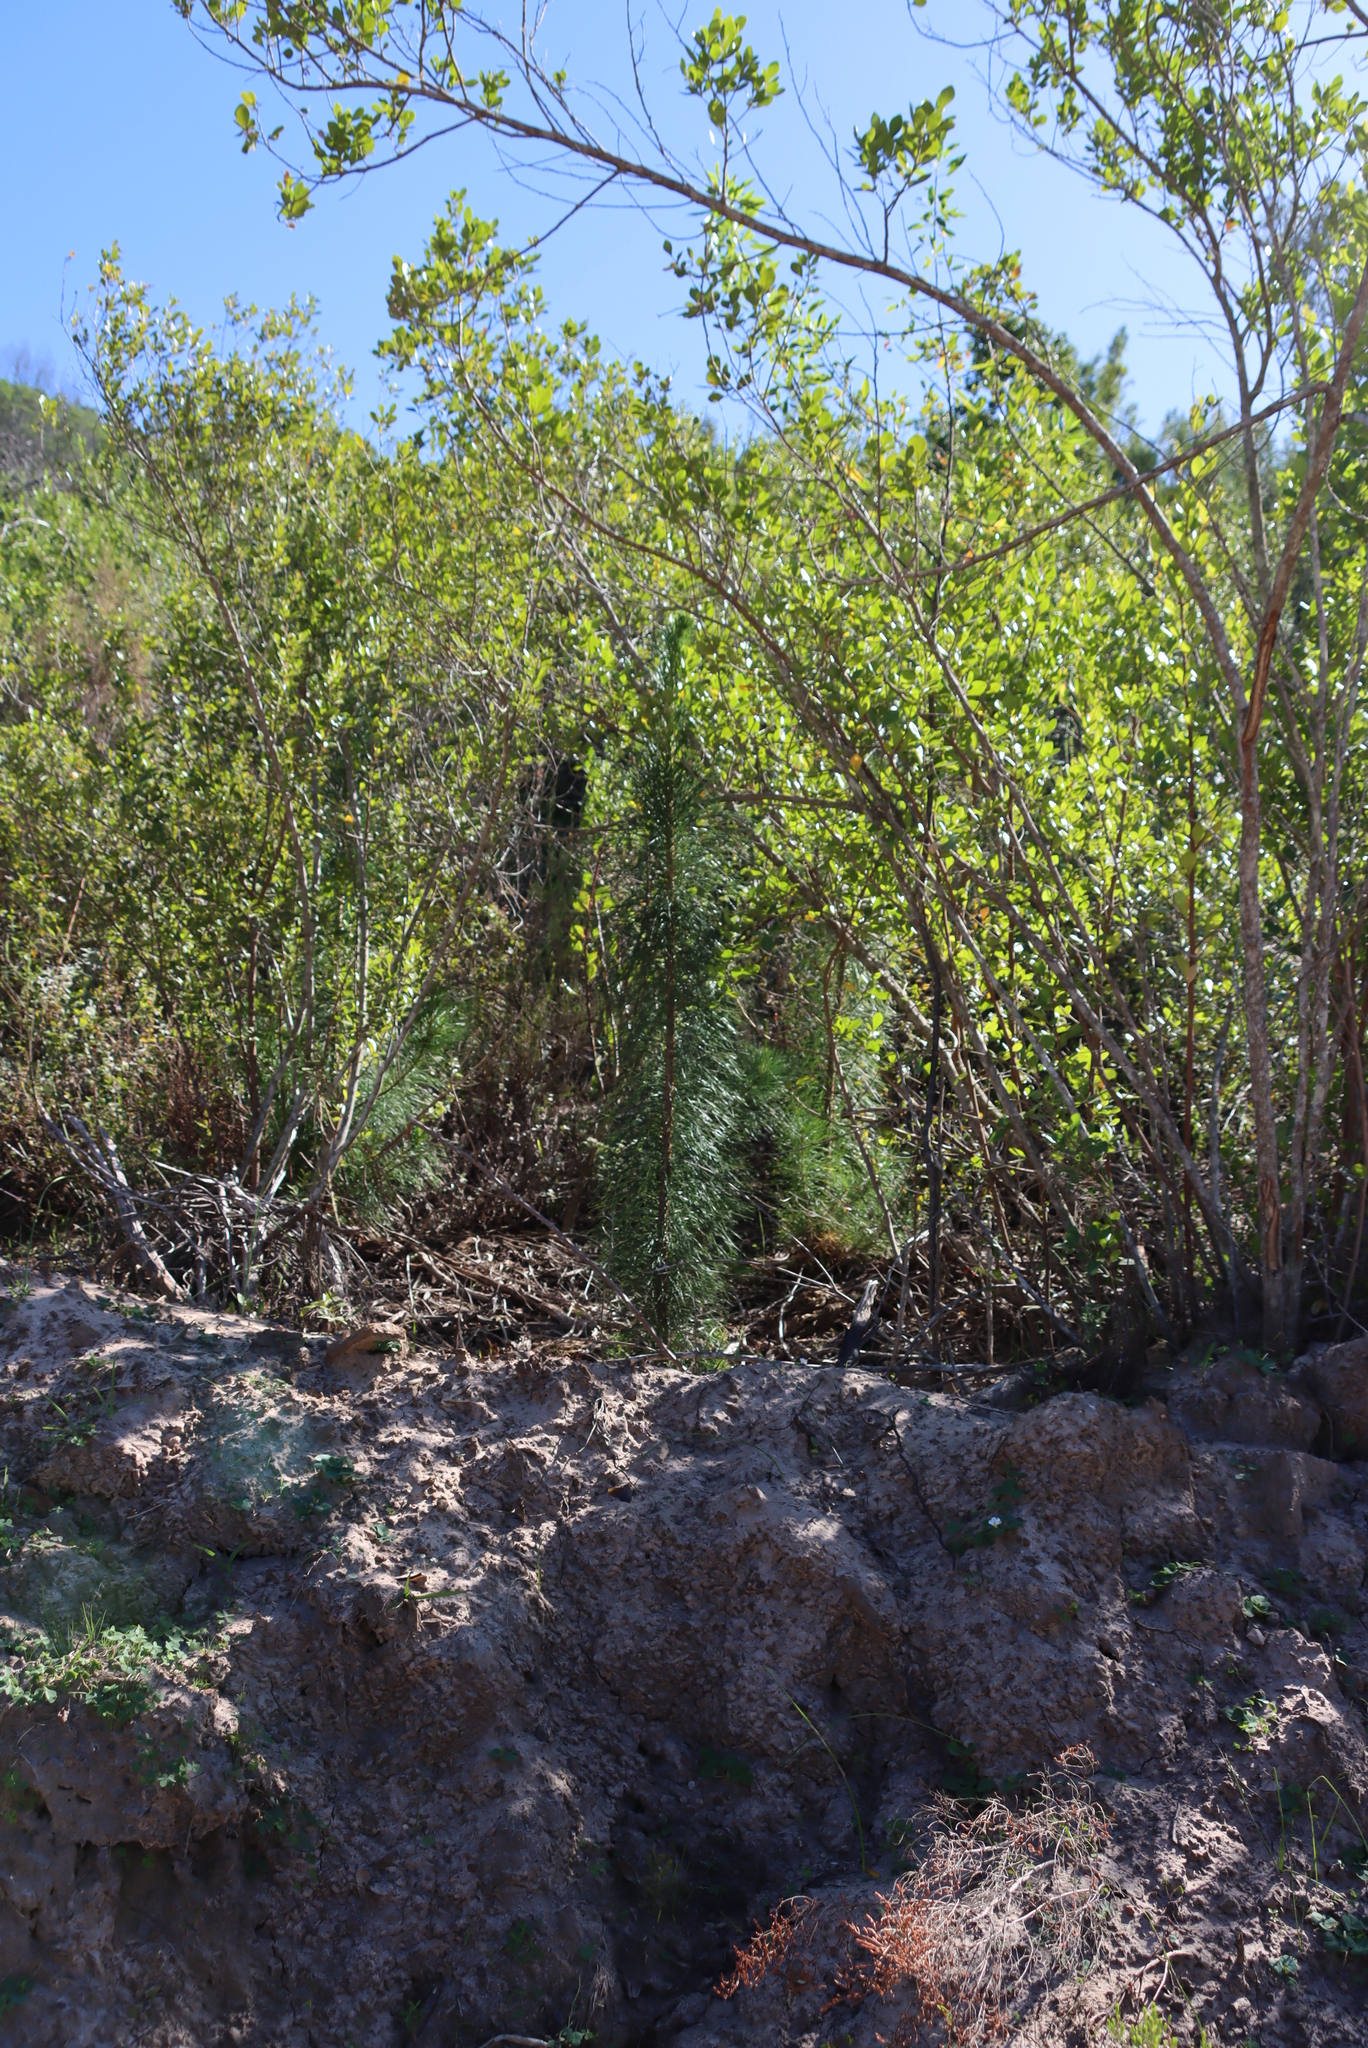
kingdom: Plantae
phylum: Tracheophyta
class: Pinopsida
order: Pinales
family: Pinaceae
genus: Pinus
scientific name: Pinus radiata
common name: Monterey pine
